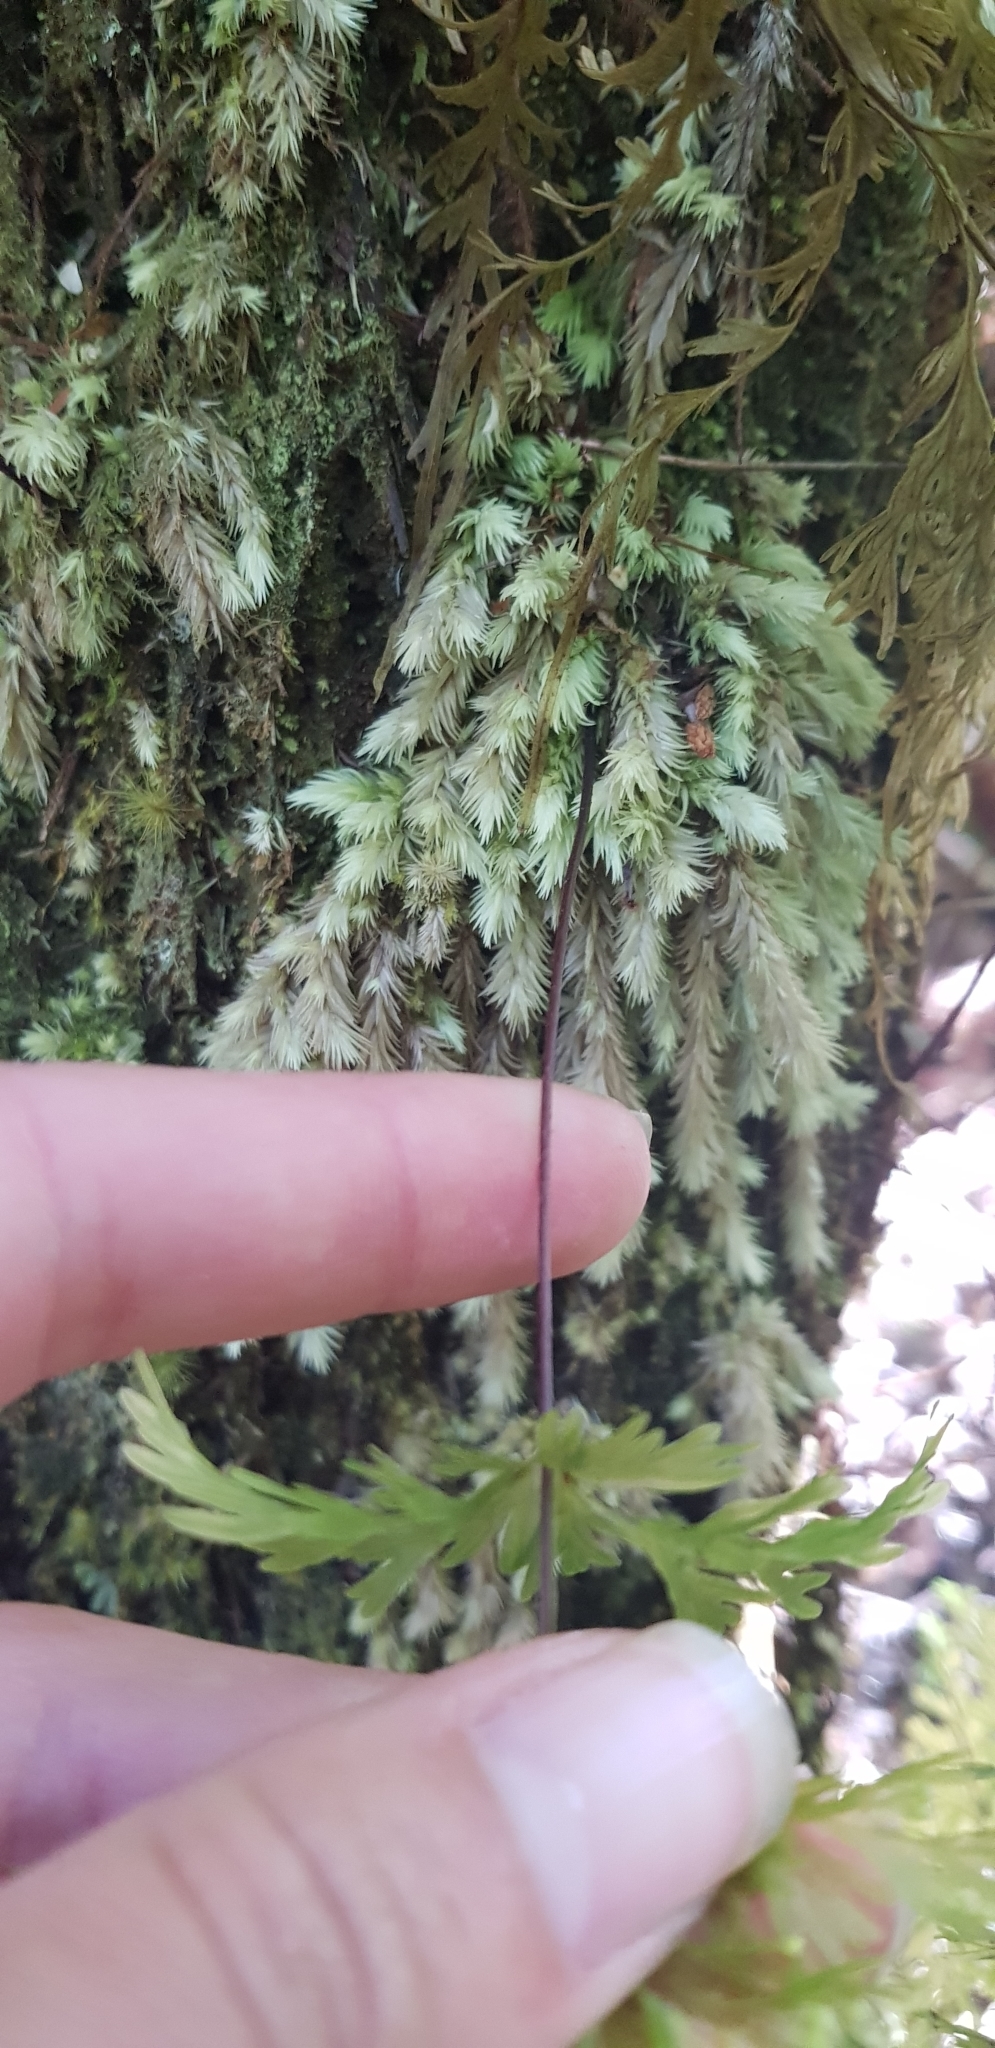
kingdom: Plantae
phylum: Tracheophyta
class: Polypodiopsida
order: Hymenophyllales
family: Hymenophyllaceae
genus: Hymenophyllum
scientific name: Hymenophyllum demissum
